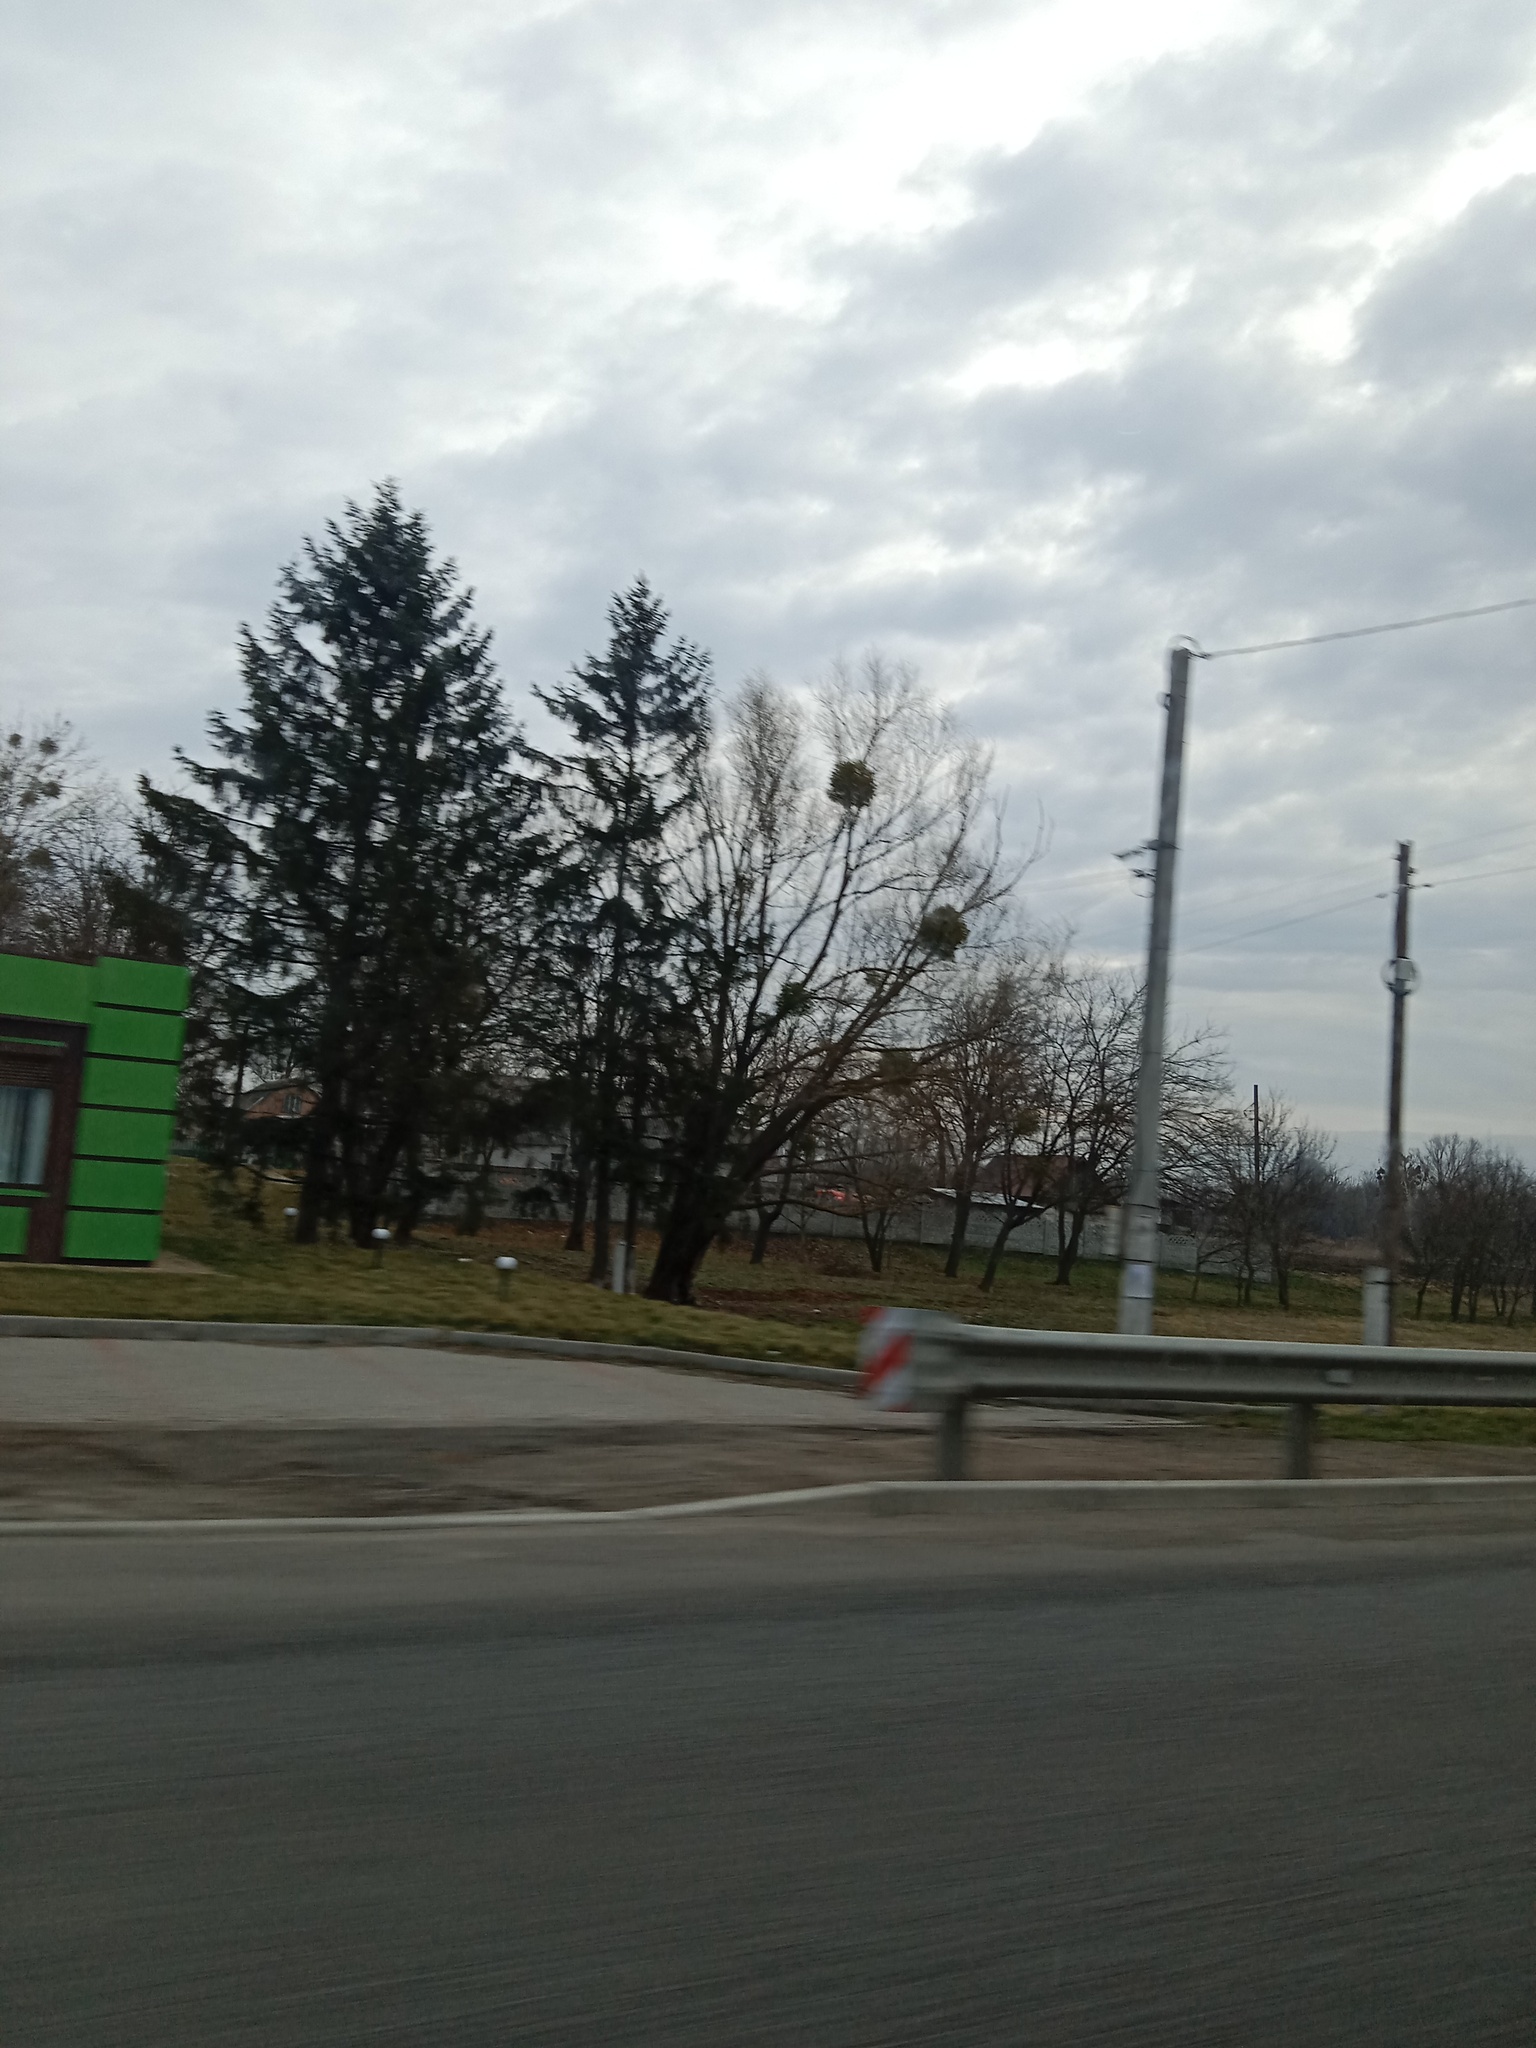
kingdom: Plantae
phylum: Tracheophyta
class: Magnoliopsida
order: Santalales
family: Viscaceae
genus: Viscum
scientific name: Viscum album
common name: Mistletoe
